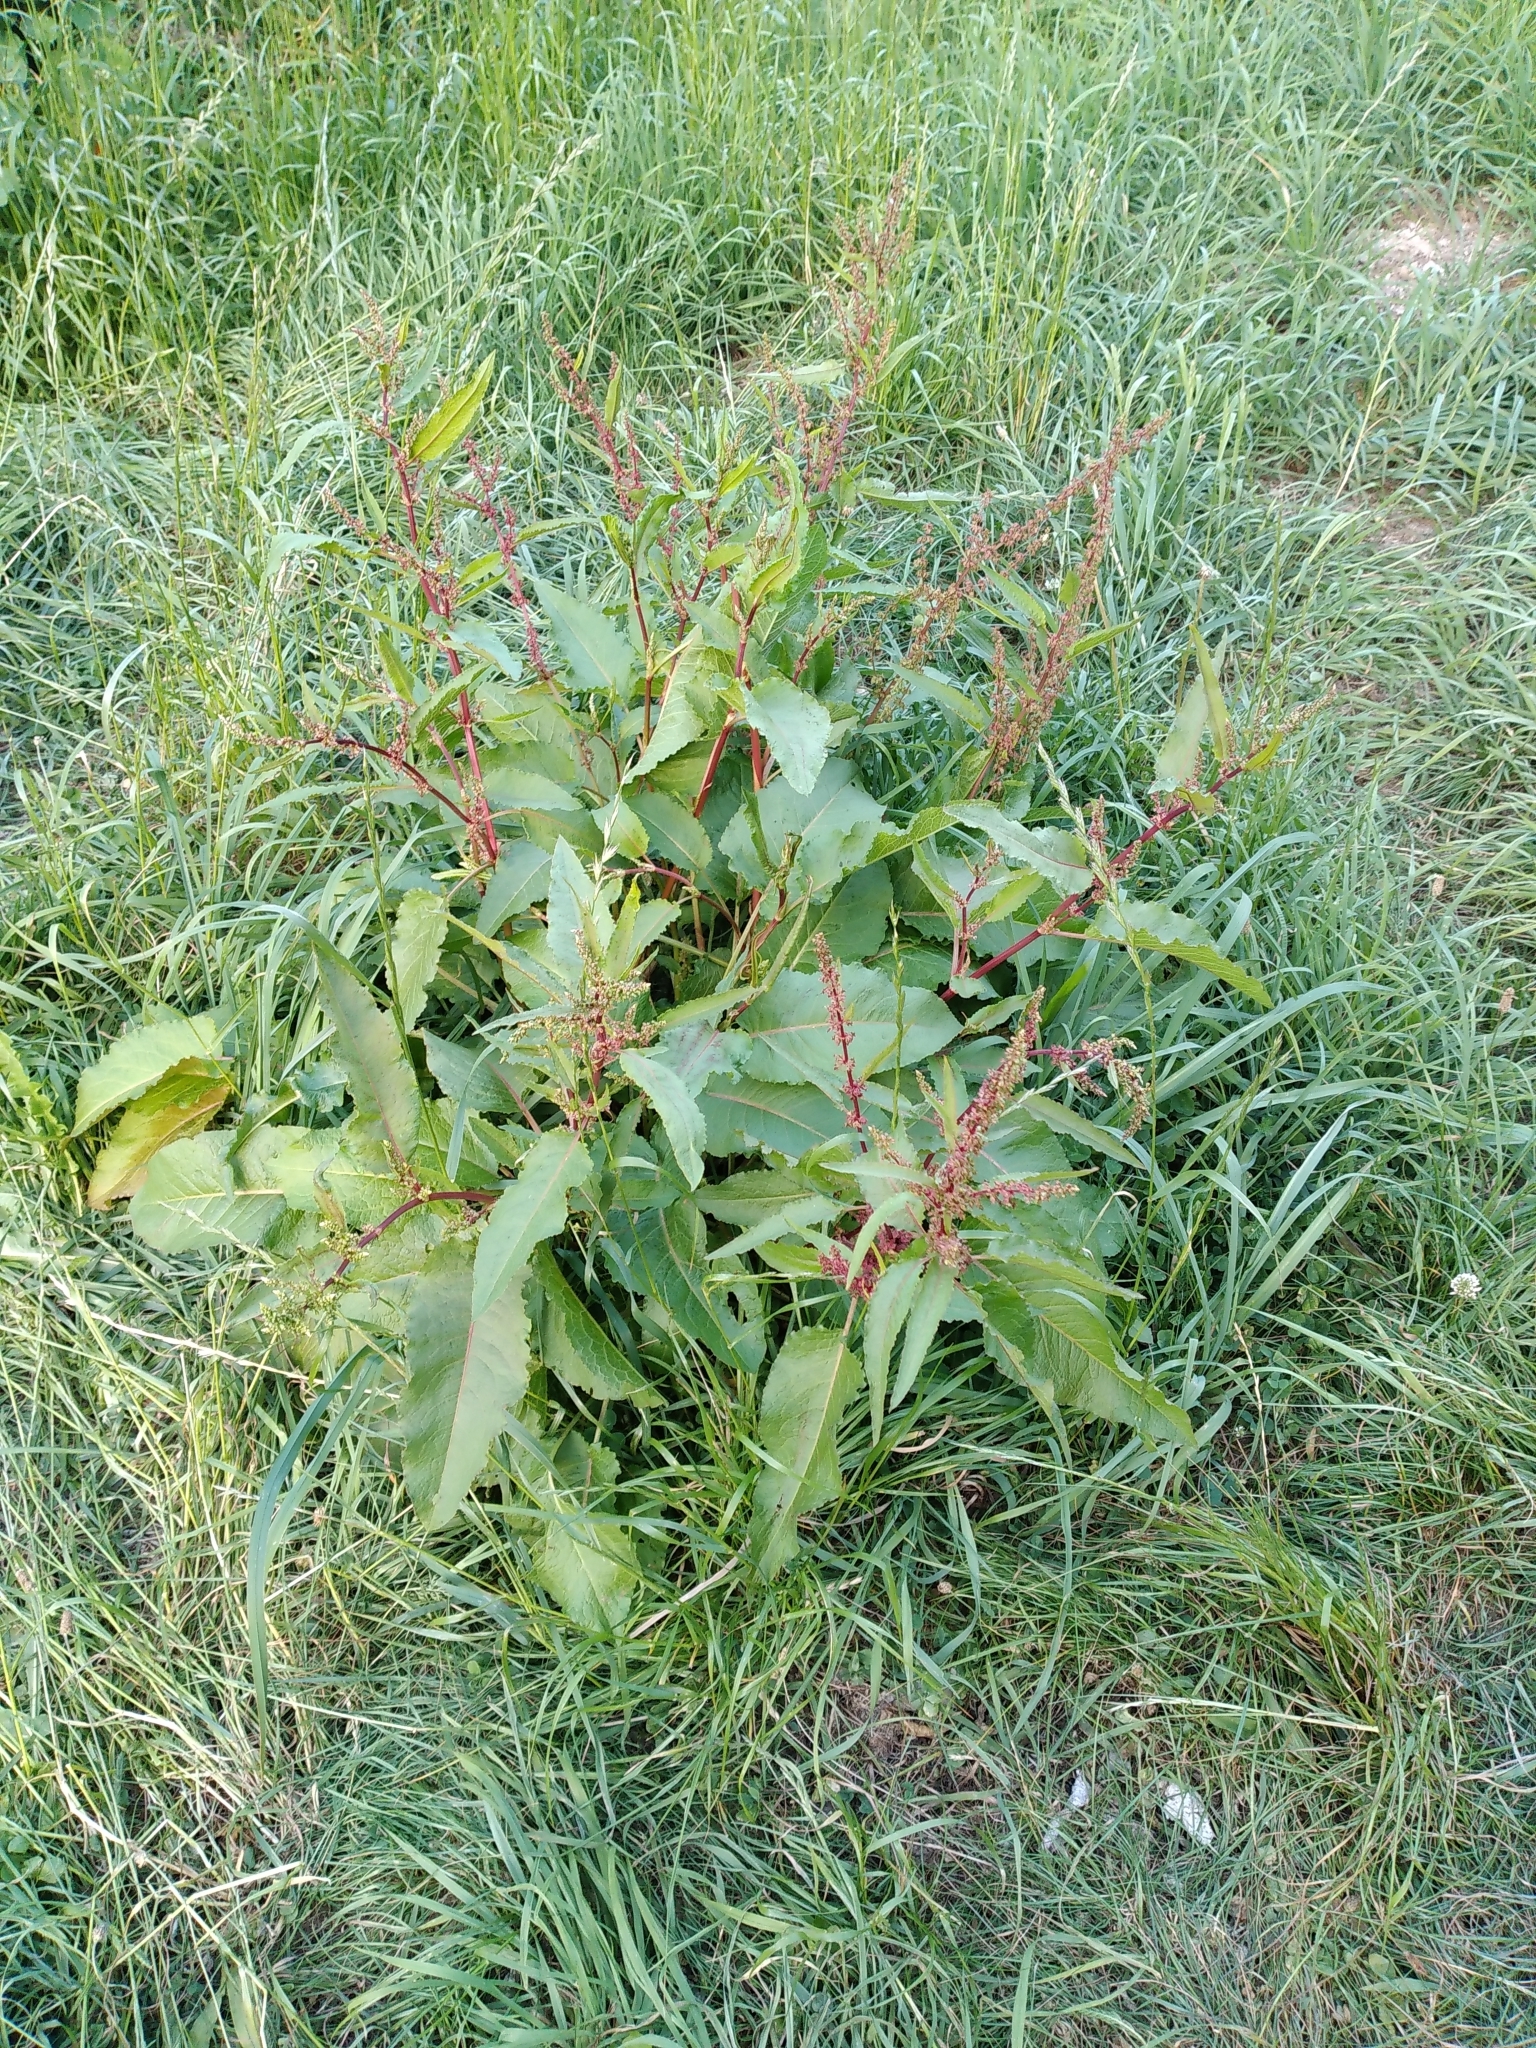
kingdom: Plantae
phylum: Tracheophyta
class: Magnoliopsida
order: Caryophyllales
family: Polygonaceae
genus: Rumex
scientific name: Rumex obtusifolius
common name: Bitter dock
